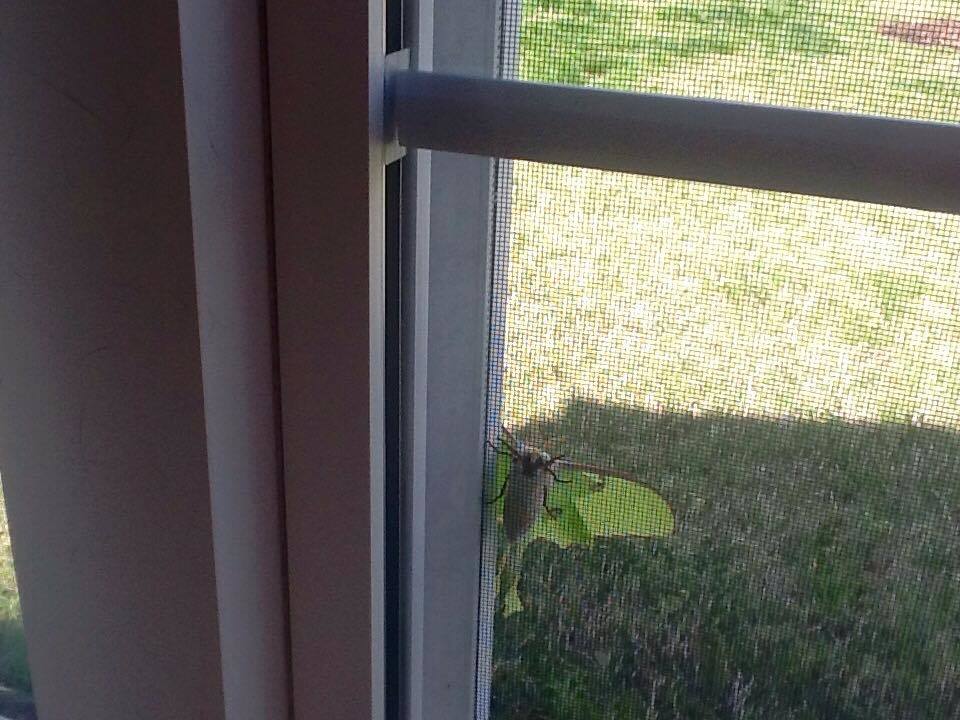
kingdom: Animalia
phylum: Arthropoda
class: Insecta
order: Lepidoptera
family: Saturniidae
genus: Actias
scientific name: Actias luna
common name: Luna moth
